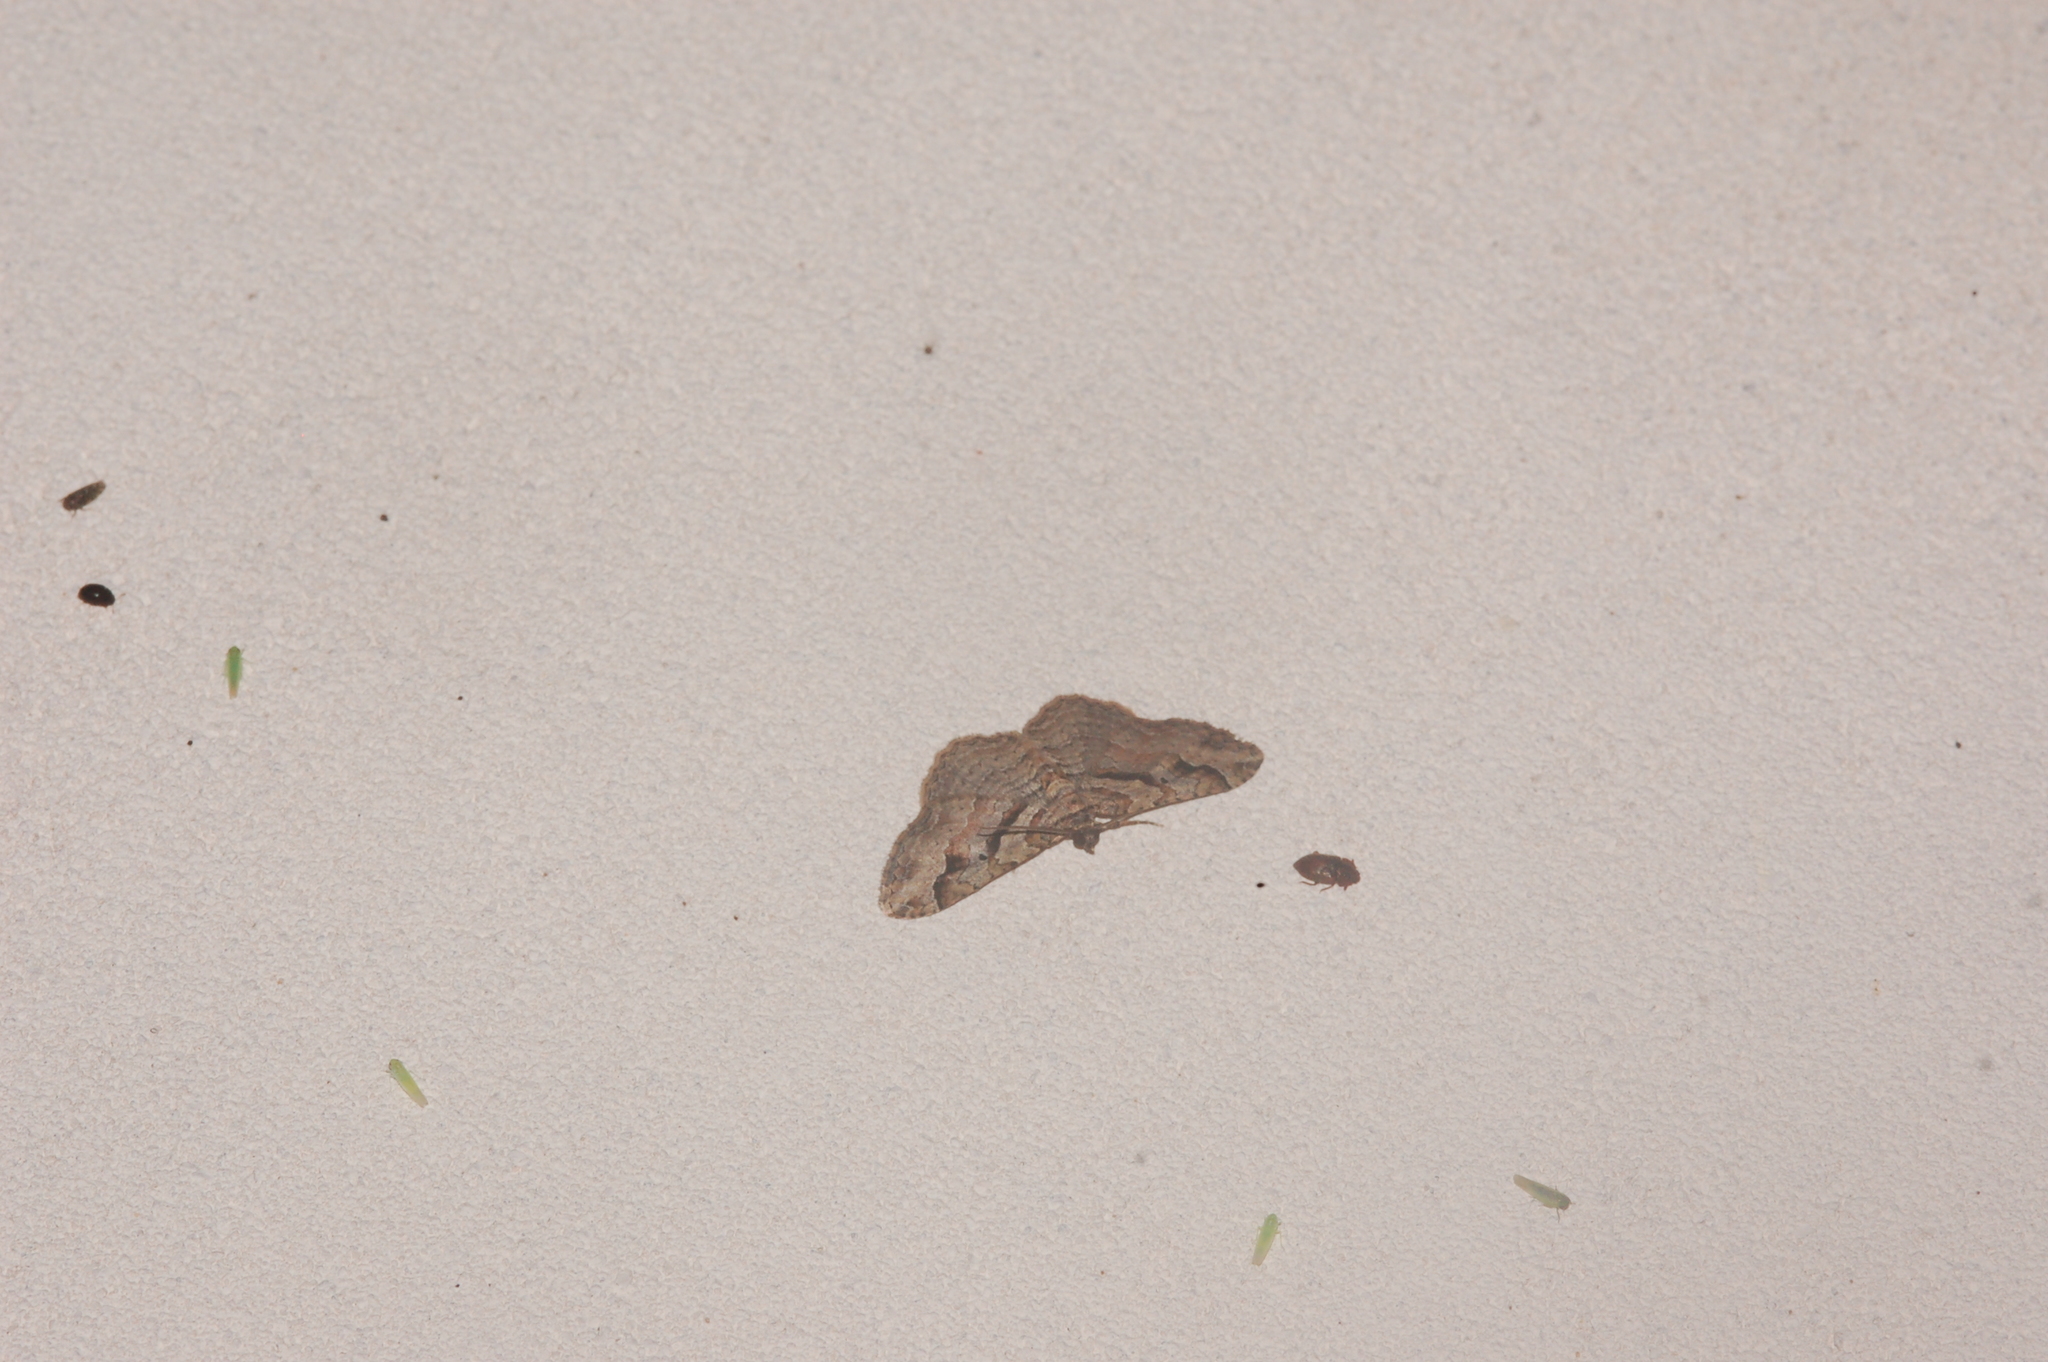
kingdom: Animalia
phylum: Arthropoda
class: Insecta
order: Lepidoptera
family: Geometridae
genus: Costaconvexa
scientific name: Costaconvexa centrostrigaria
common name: Bent-line carpet
